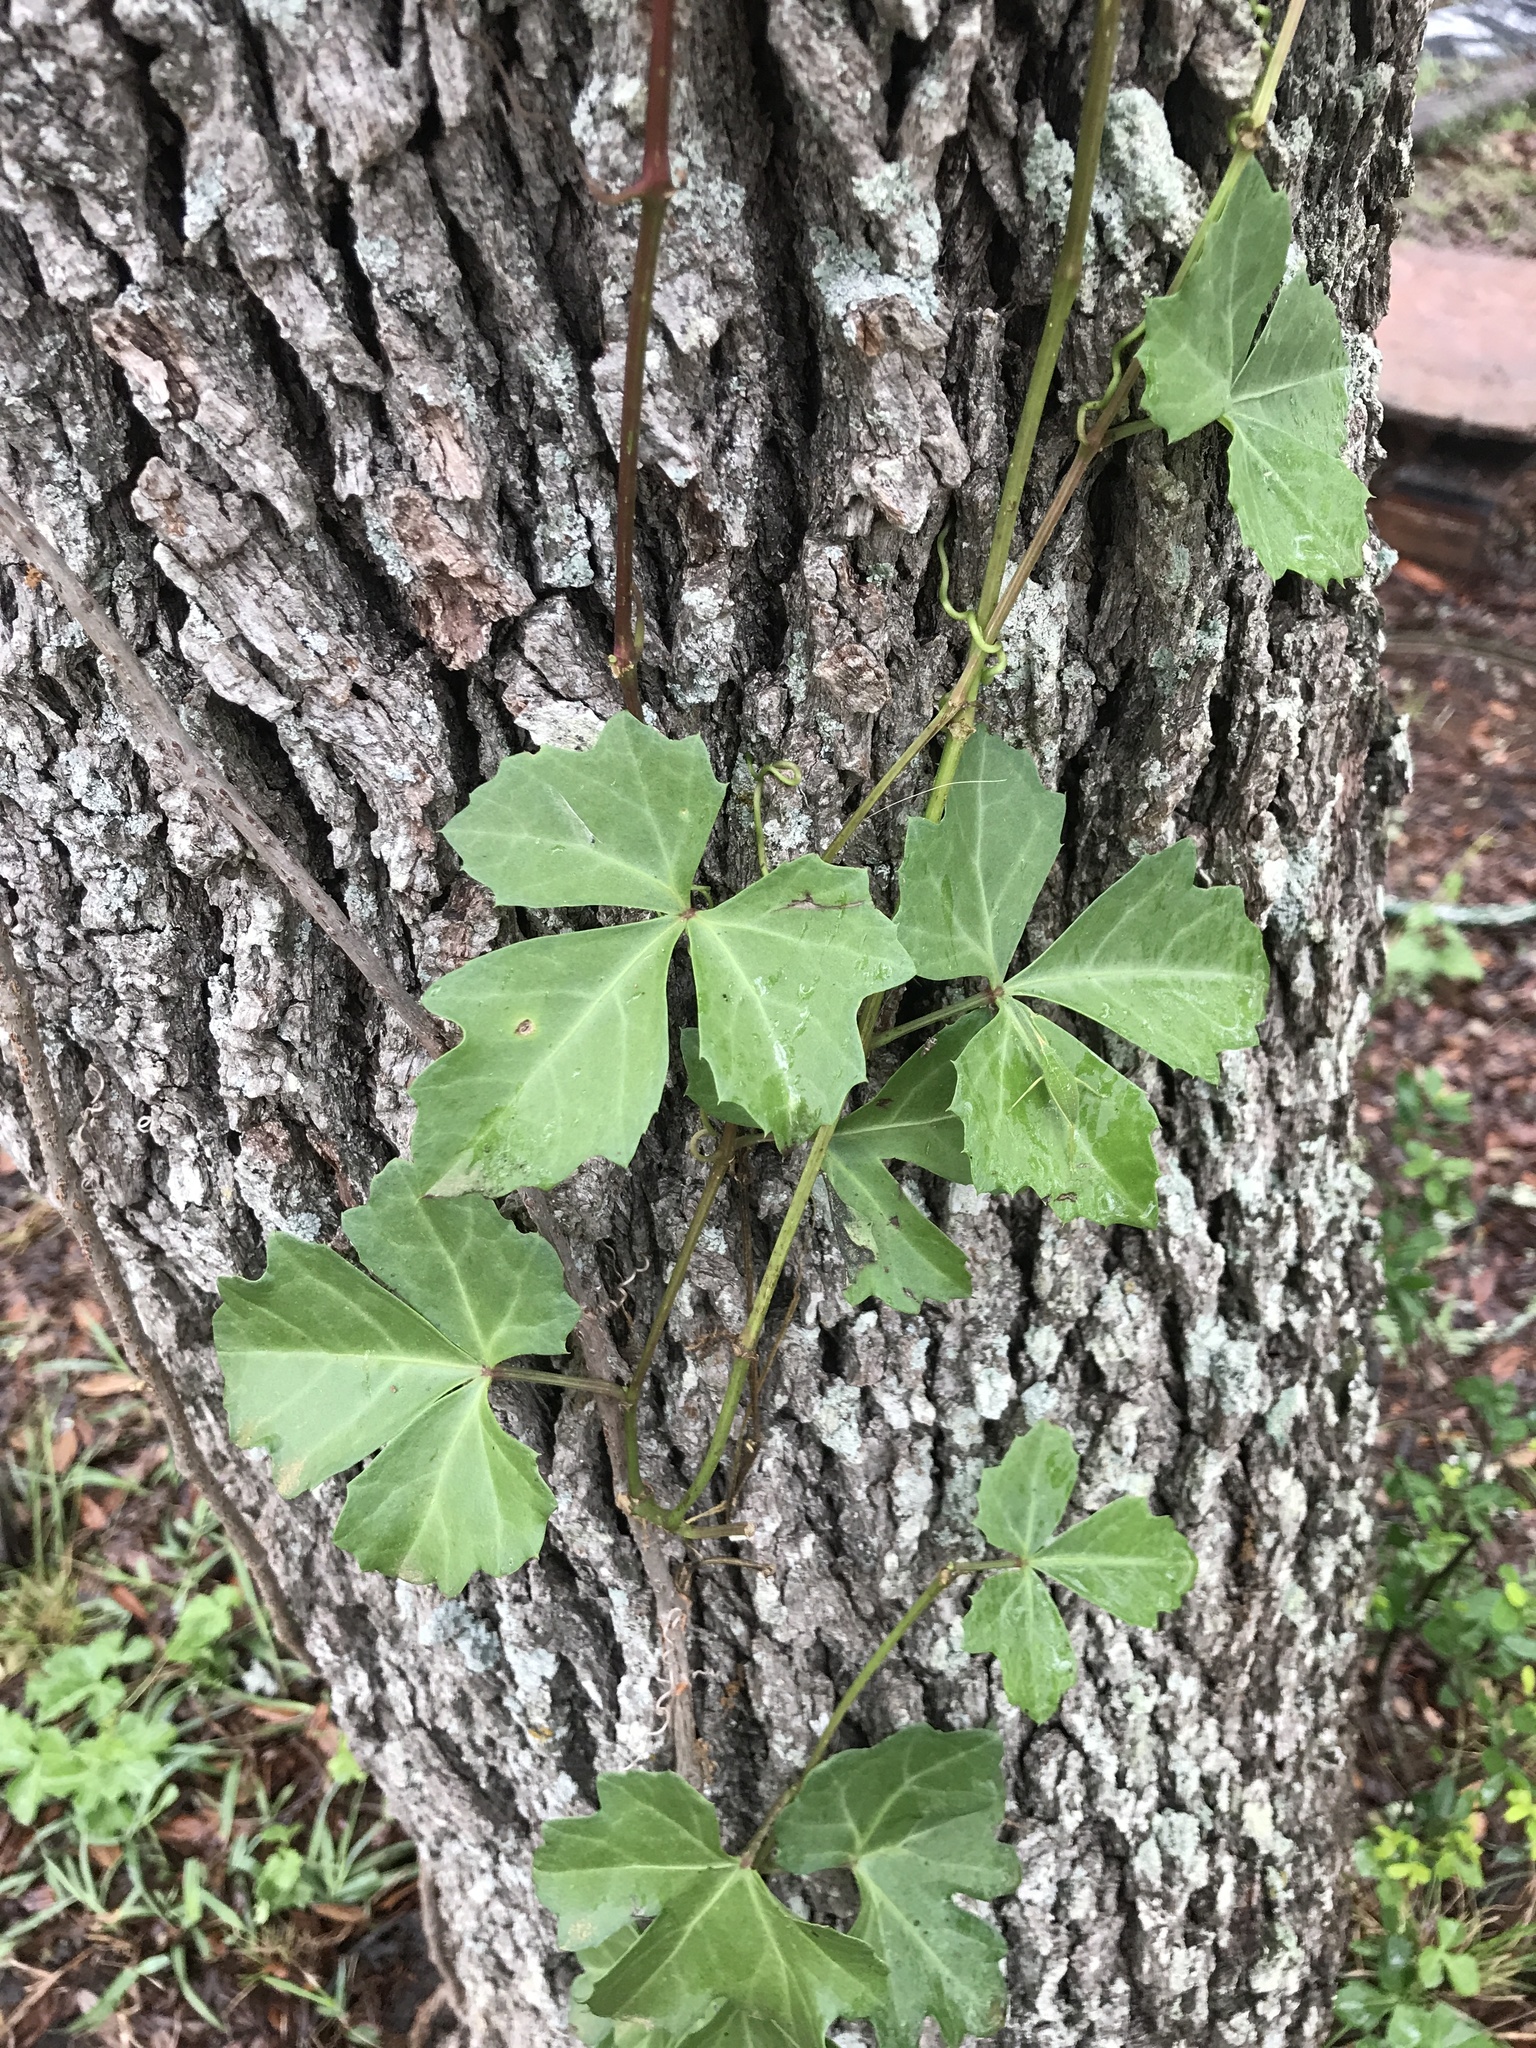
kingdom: Plantae
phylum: Tracheophyta
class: Magnoliopsida
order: Vitales
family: Vitaceae
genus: Cissus
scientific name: Cissus trifoliata
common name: Vine-sorrel
